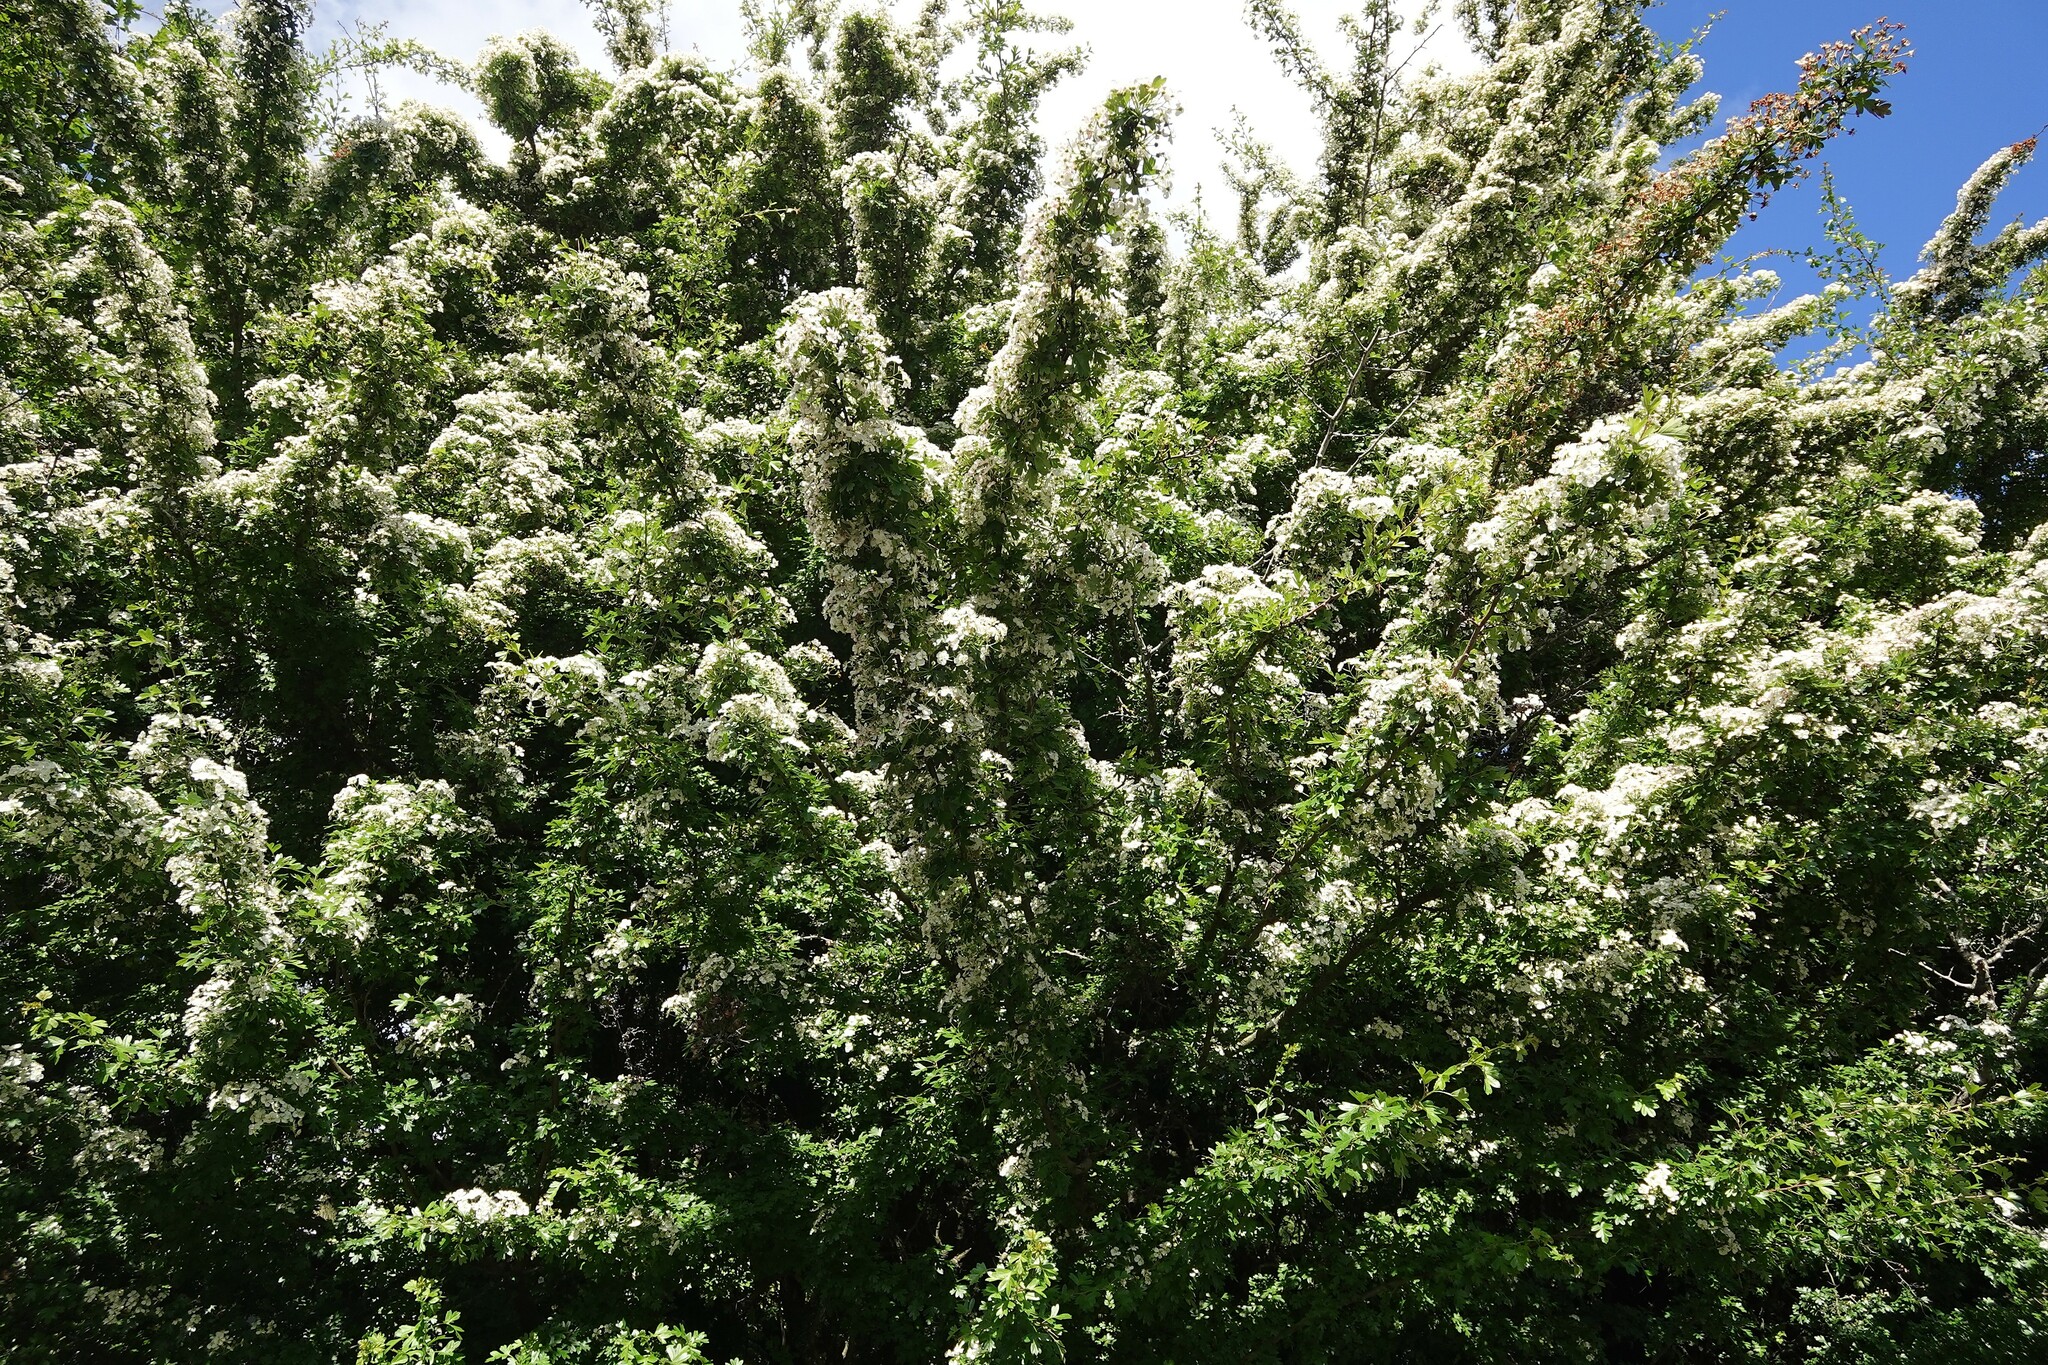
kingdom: Plantae
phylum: Tracheophyta
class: Magnoliopsida
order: Rosales
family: Rosaceae
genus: Crataegus
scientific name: Crataegus monogyna
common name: Hawthorn
